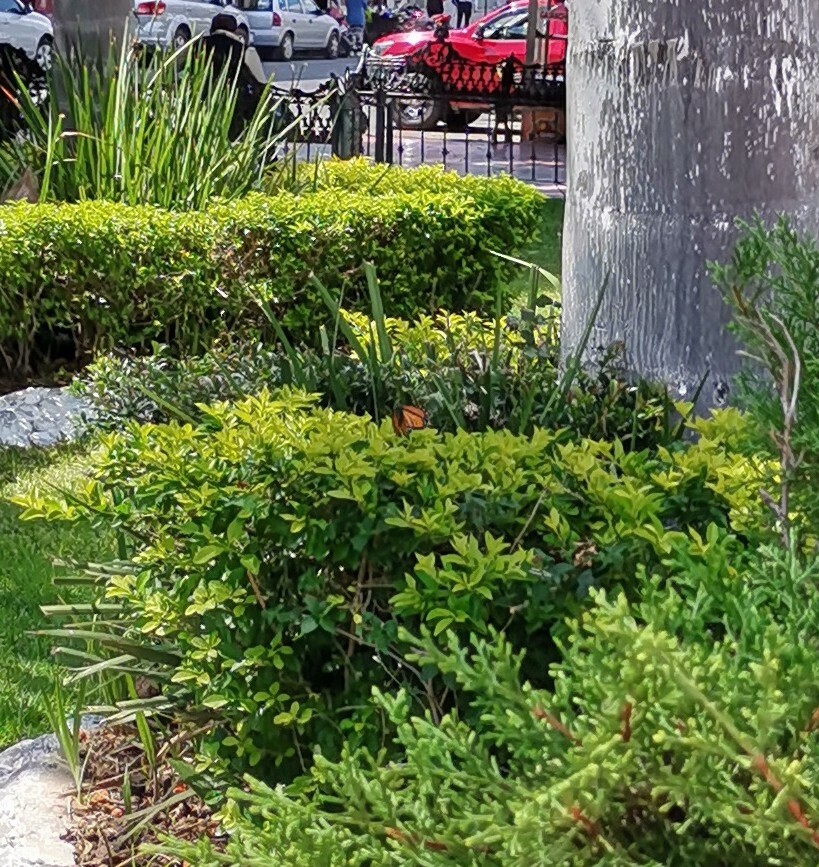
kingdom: Animalia
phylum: Arthropoda
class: Insecta
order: Lepidoptera
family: Nymphalidae
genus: Danaus
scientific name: Danaus plexippus
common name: Monarch
